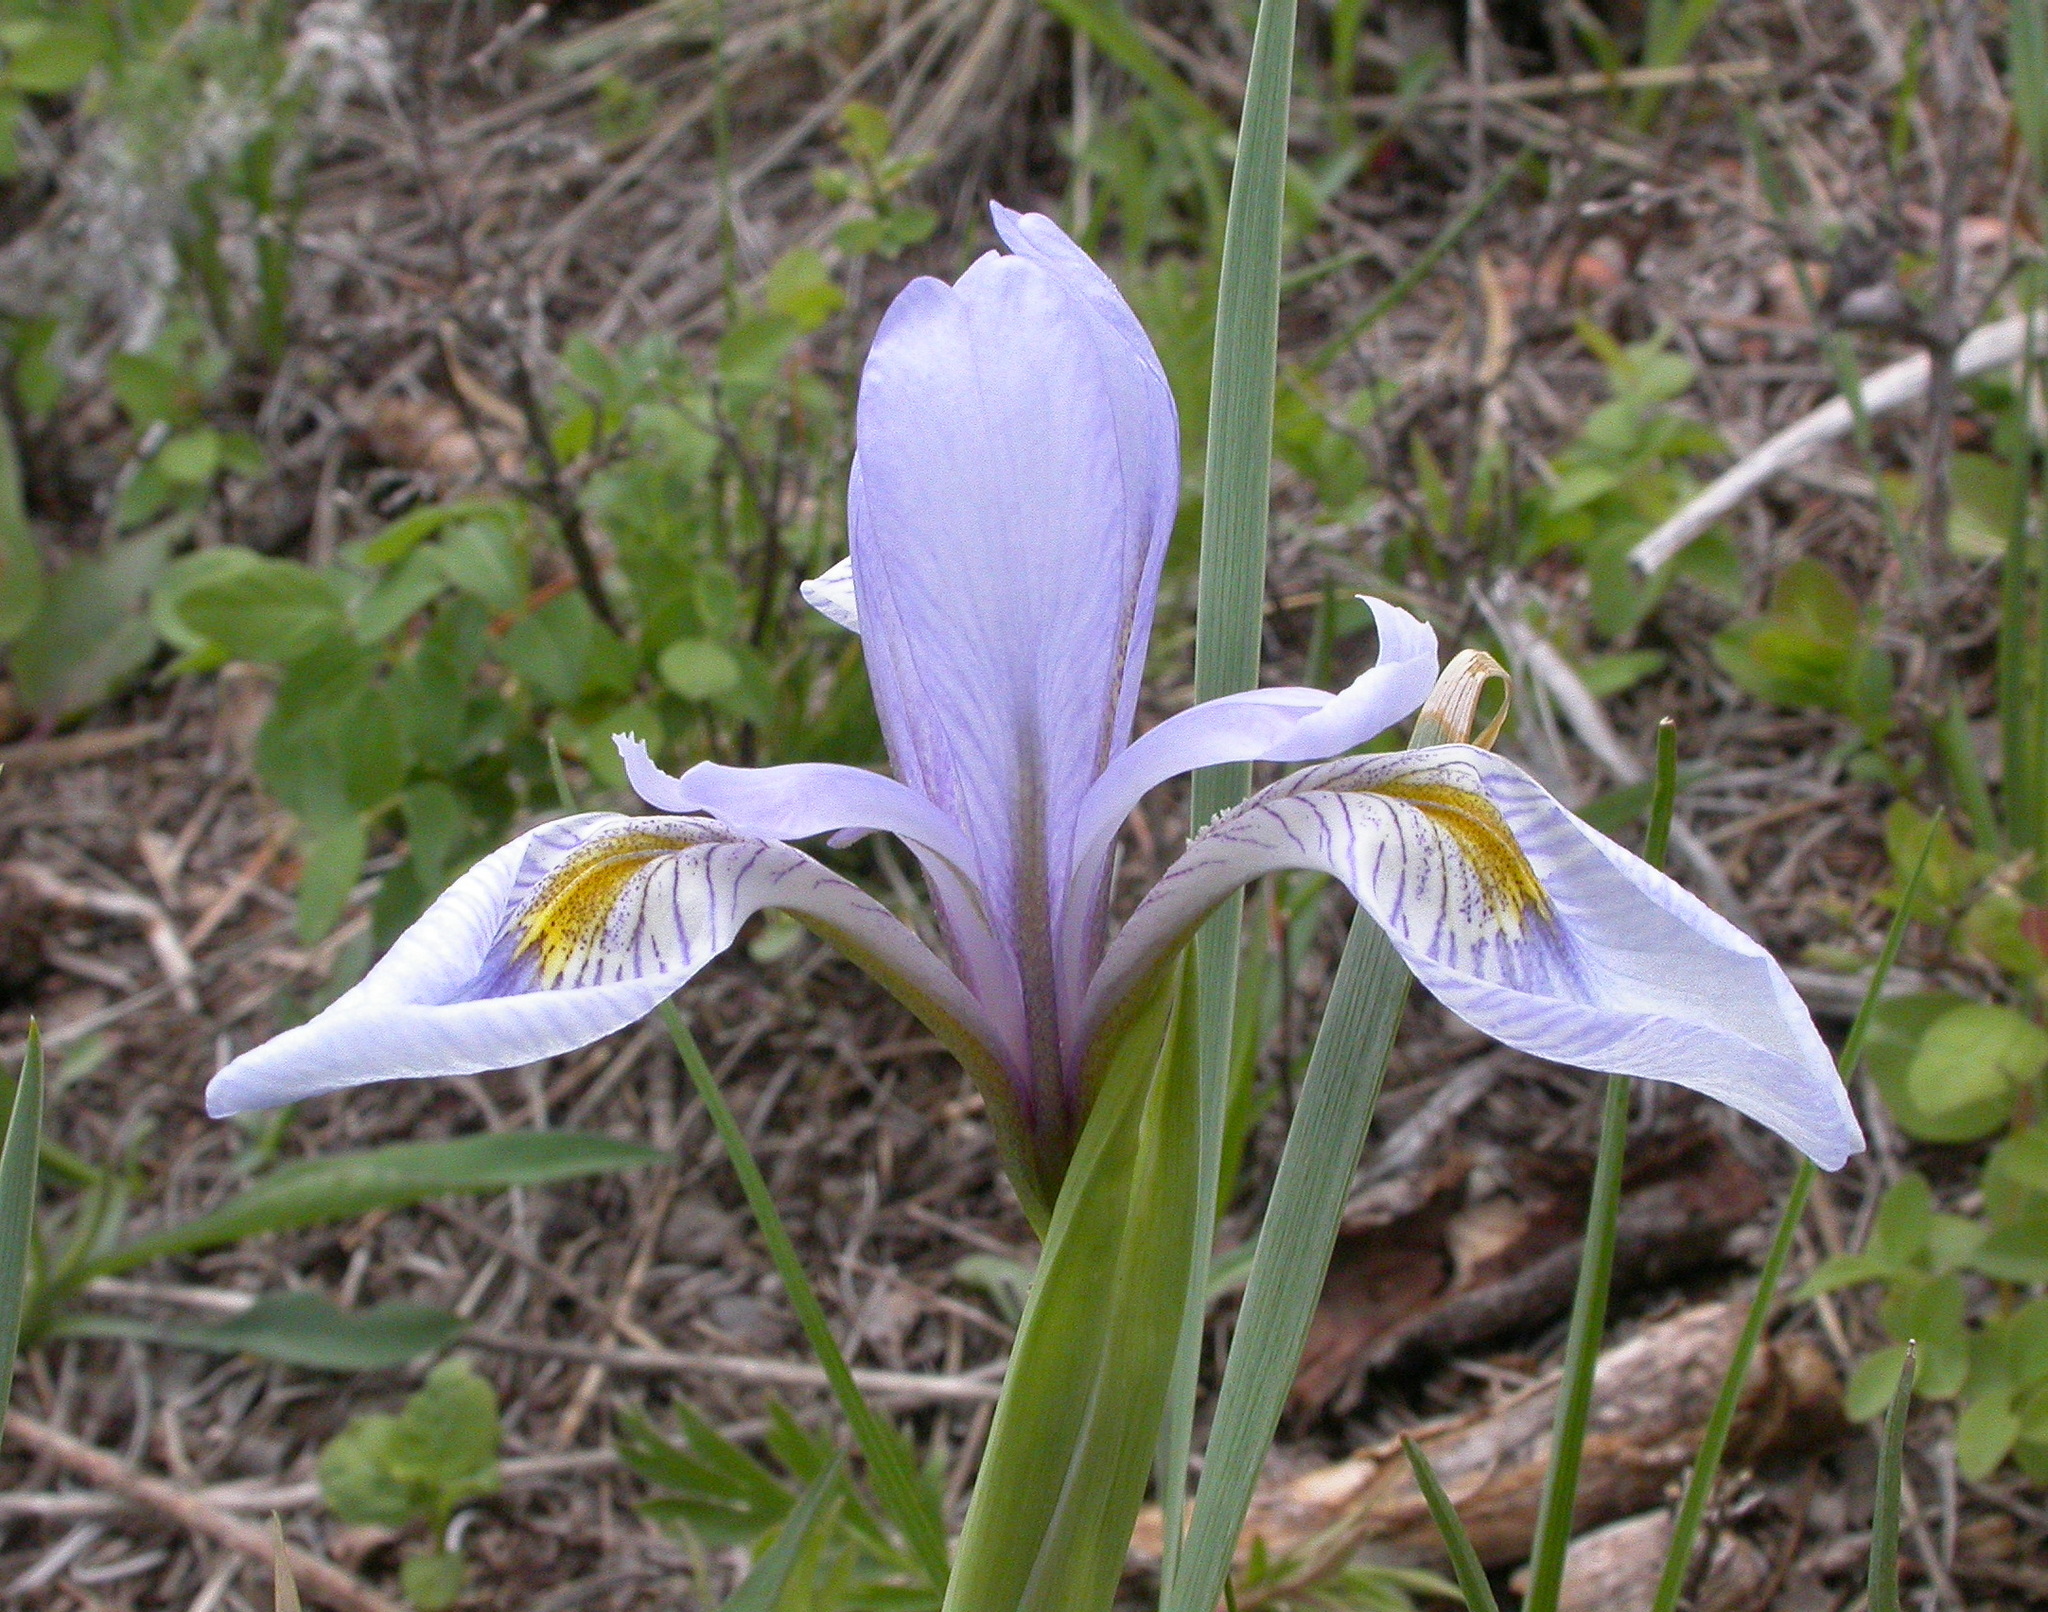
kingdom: Plantae
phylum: Tracheophyta
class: Liliopsida
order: Asparagales
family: Iridaceae
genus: Iris
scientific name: Iris missouriensis
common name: Rocky mountain iris
